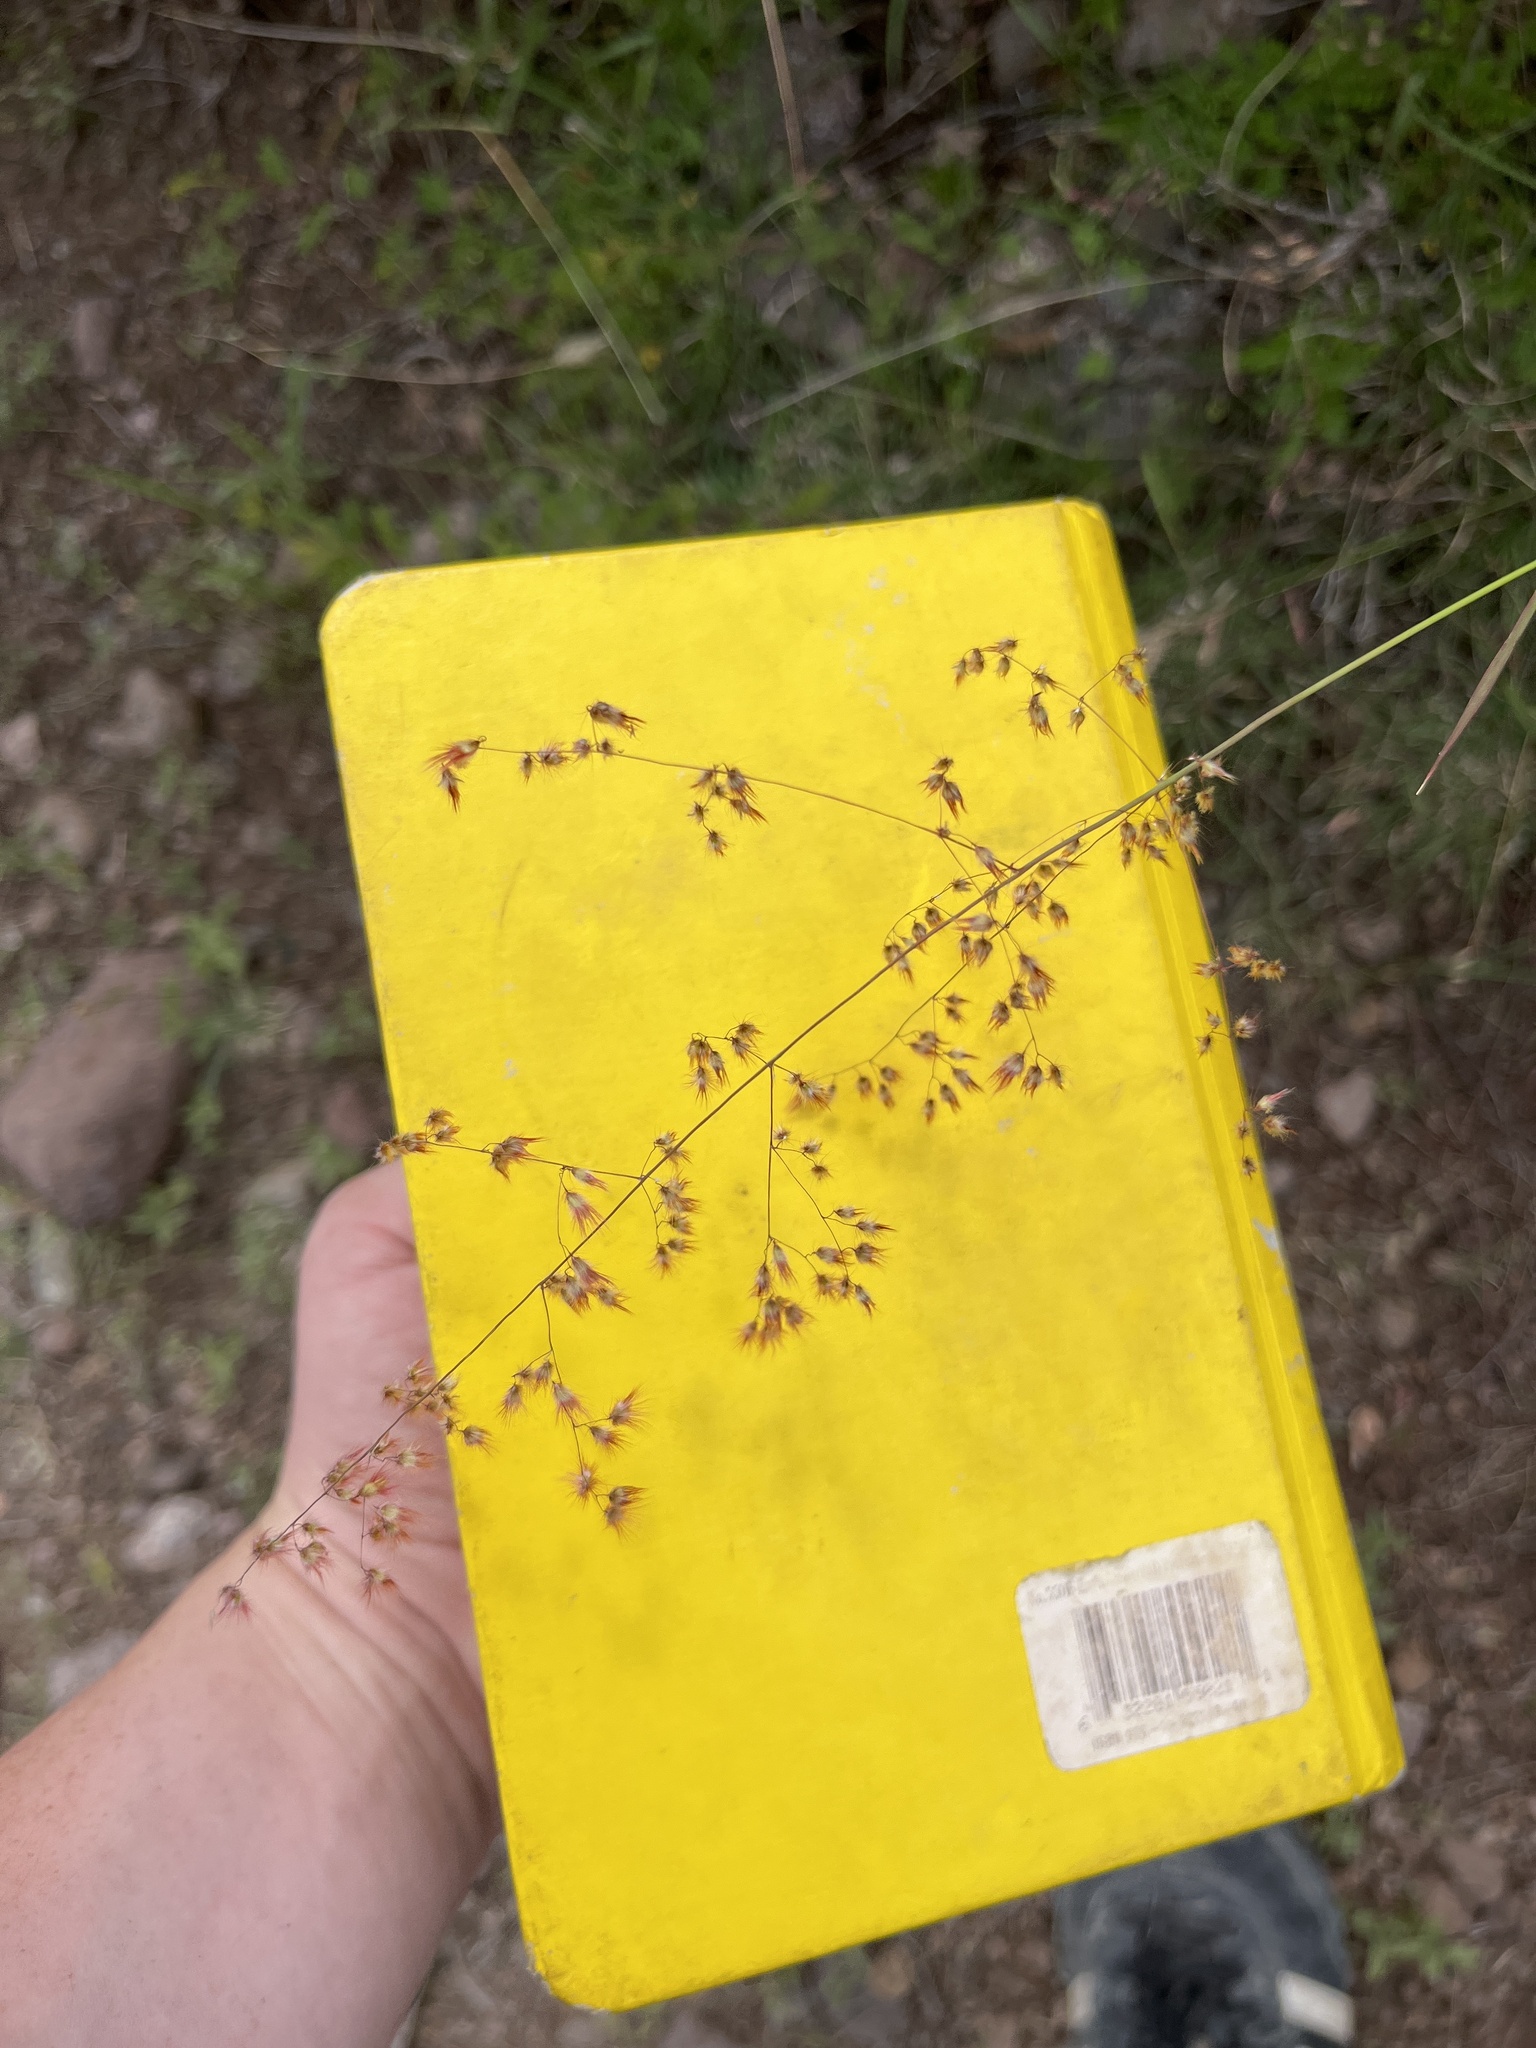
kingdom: Plantae
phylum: Tracheophyta
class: Liliopsida
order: Poales
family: Poaceae
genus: Melinis
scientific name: Melinis repens
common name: Rose natal grass
